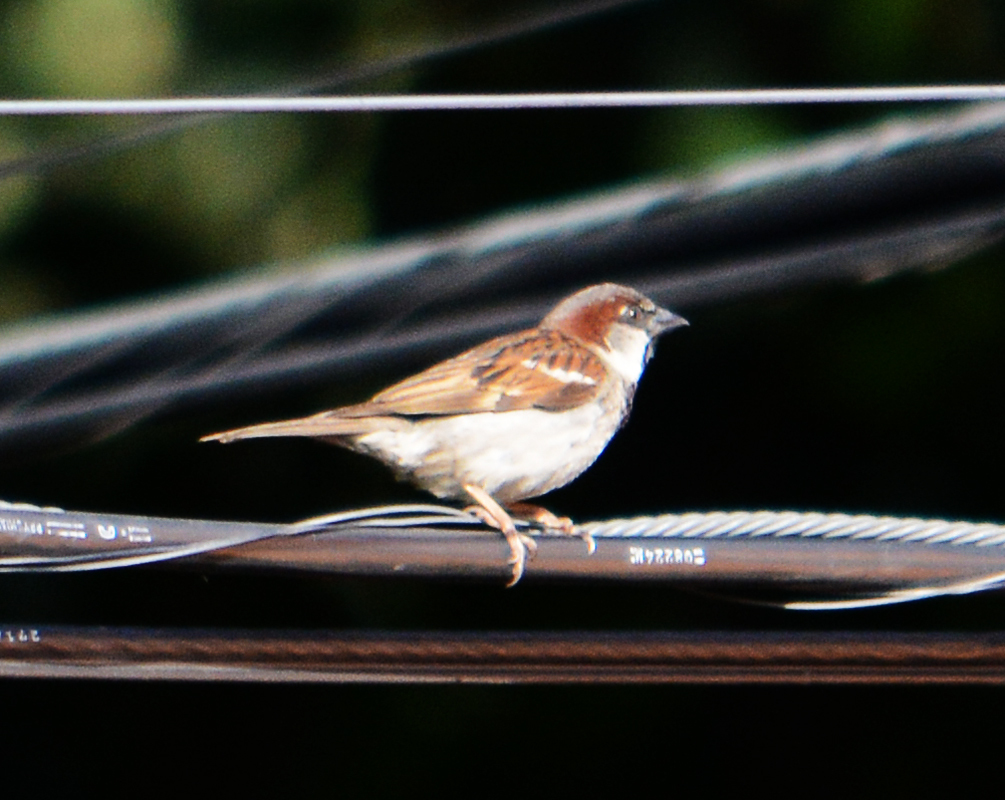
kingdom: Animalia
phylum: Chordata
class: Aves
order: Passeriformes
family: Passeridae
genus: Passer
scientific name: Passer domesticus
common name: House sparrow
